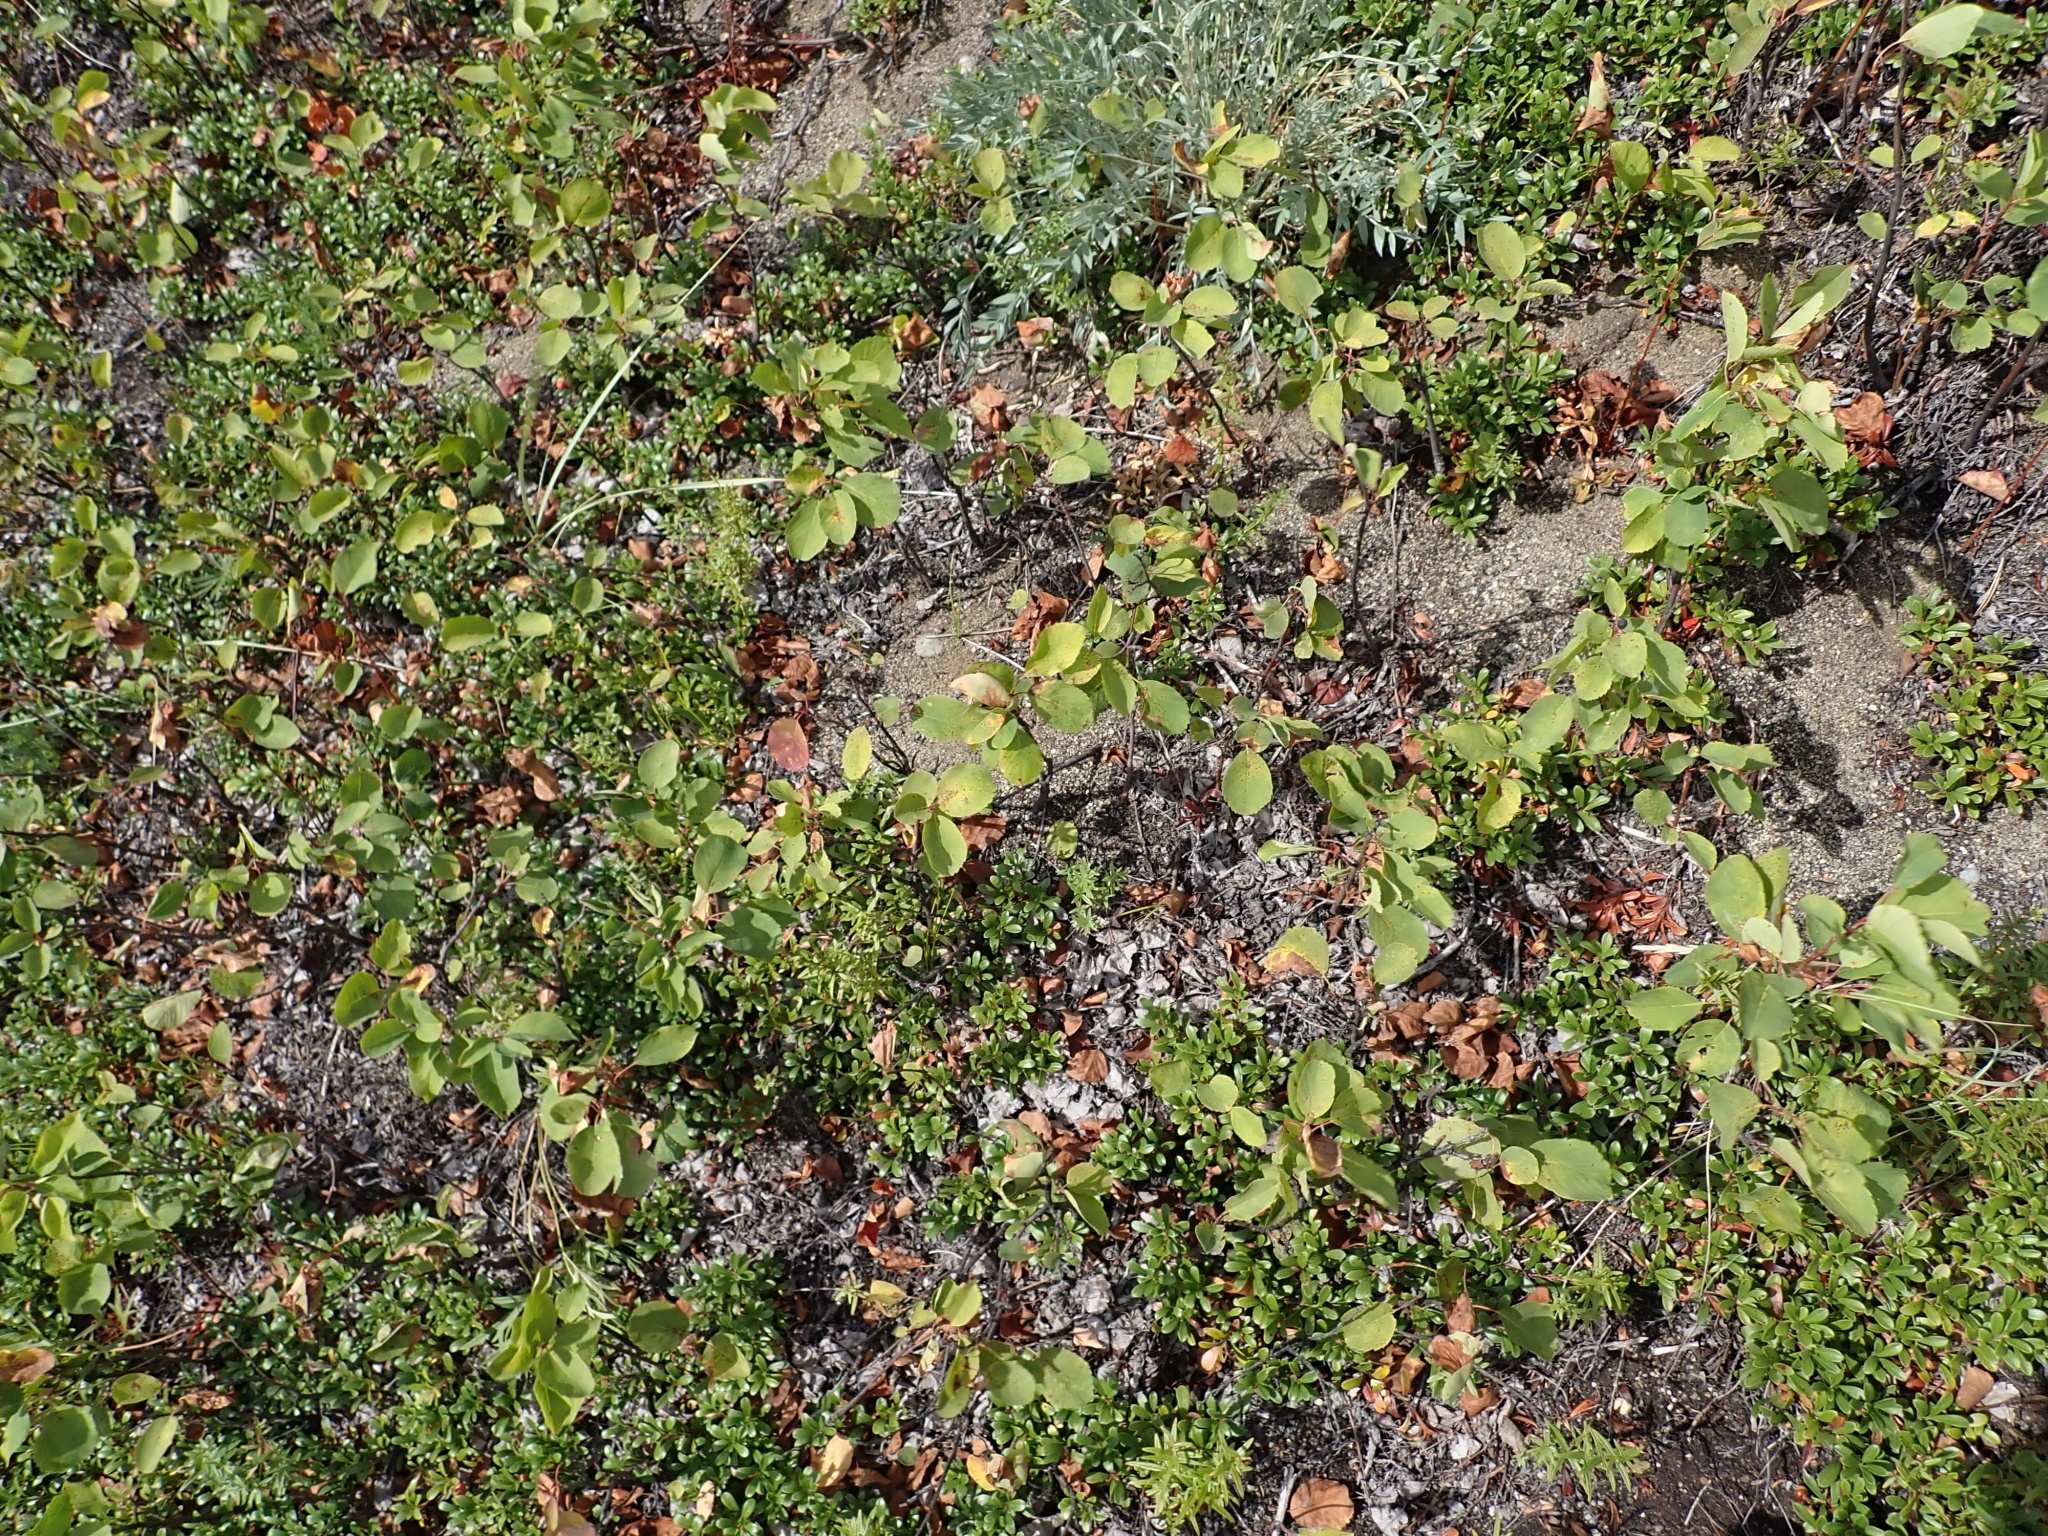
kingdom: Plantae
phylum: Tracheophyta
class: Magnoliopsida
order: Rosales
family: Rosaceae
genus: Amelanchier
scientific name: Amelanchier alnifolia
